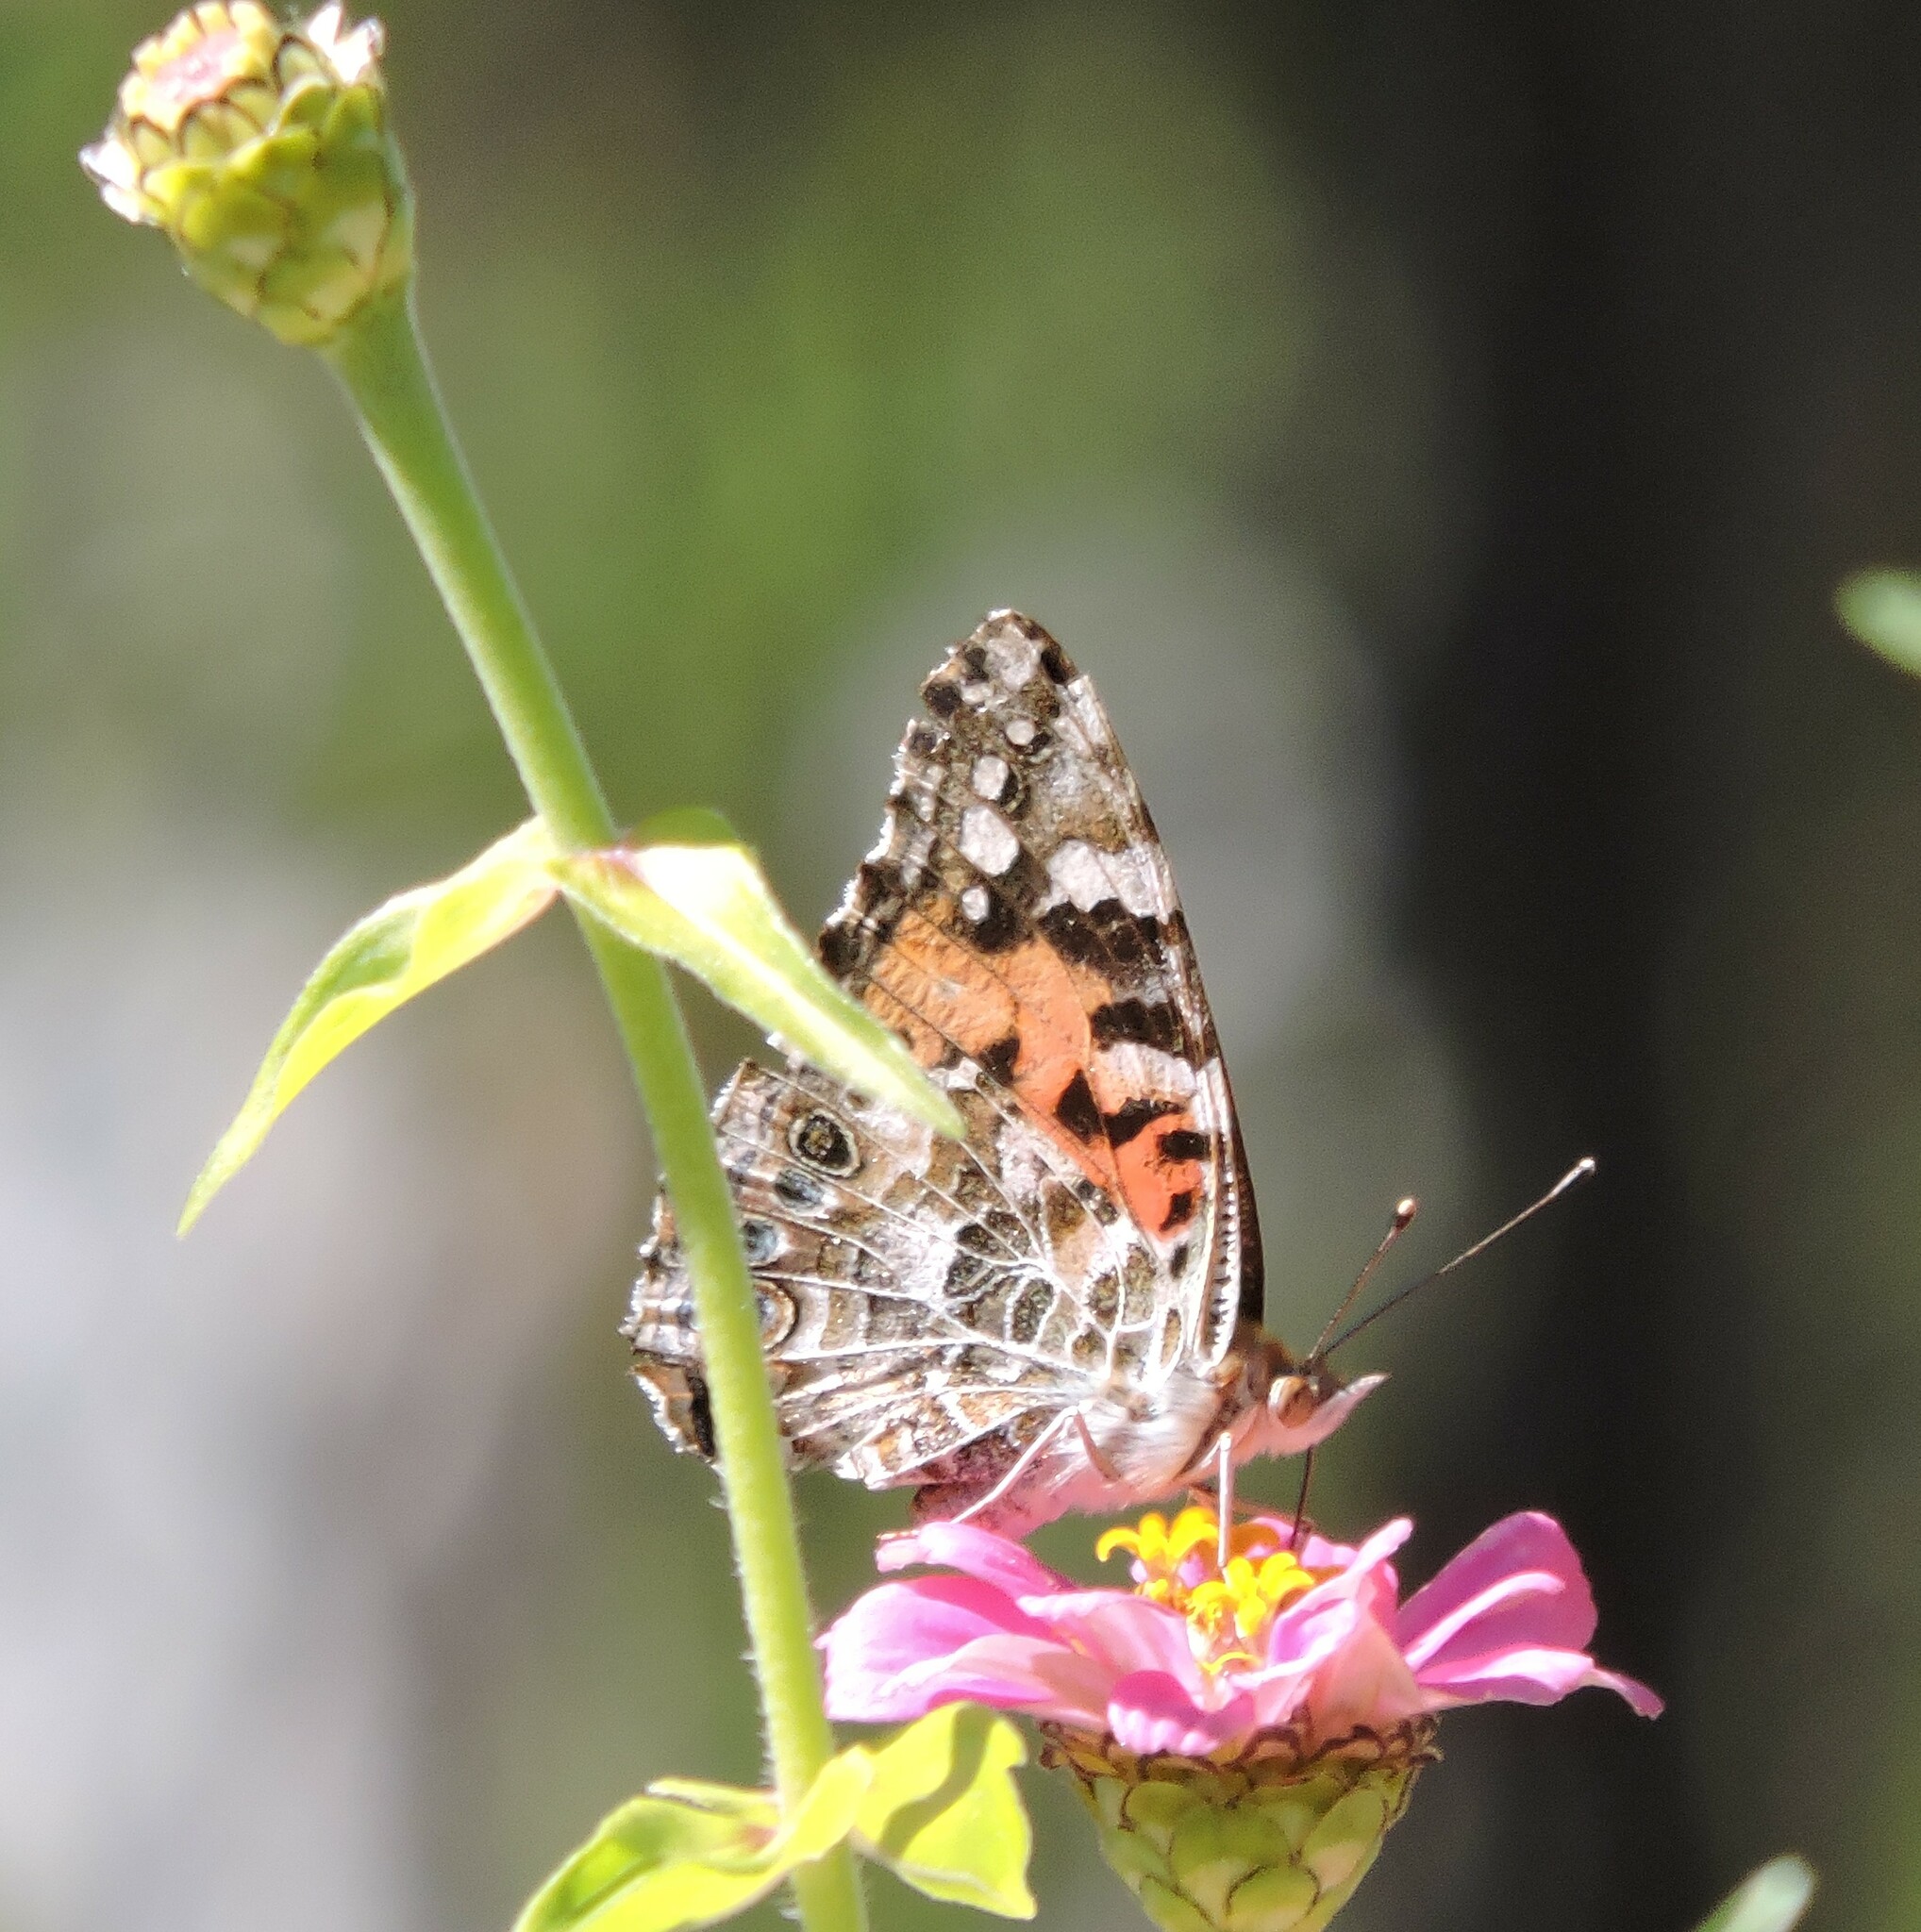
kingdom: Animalia
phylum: Arthropoda
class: Insecta
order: Lepidoptera
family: Nymphalidae
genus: Vanessa
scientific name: Vanessa cardui
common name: Painted lady
